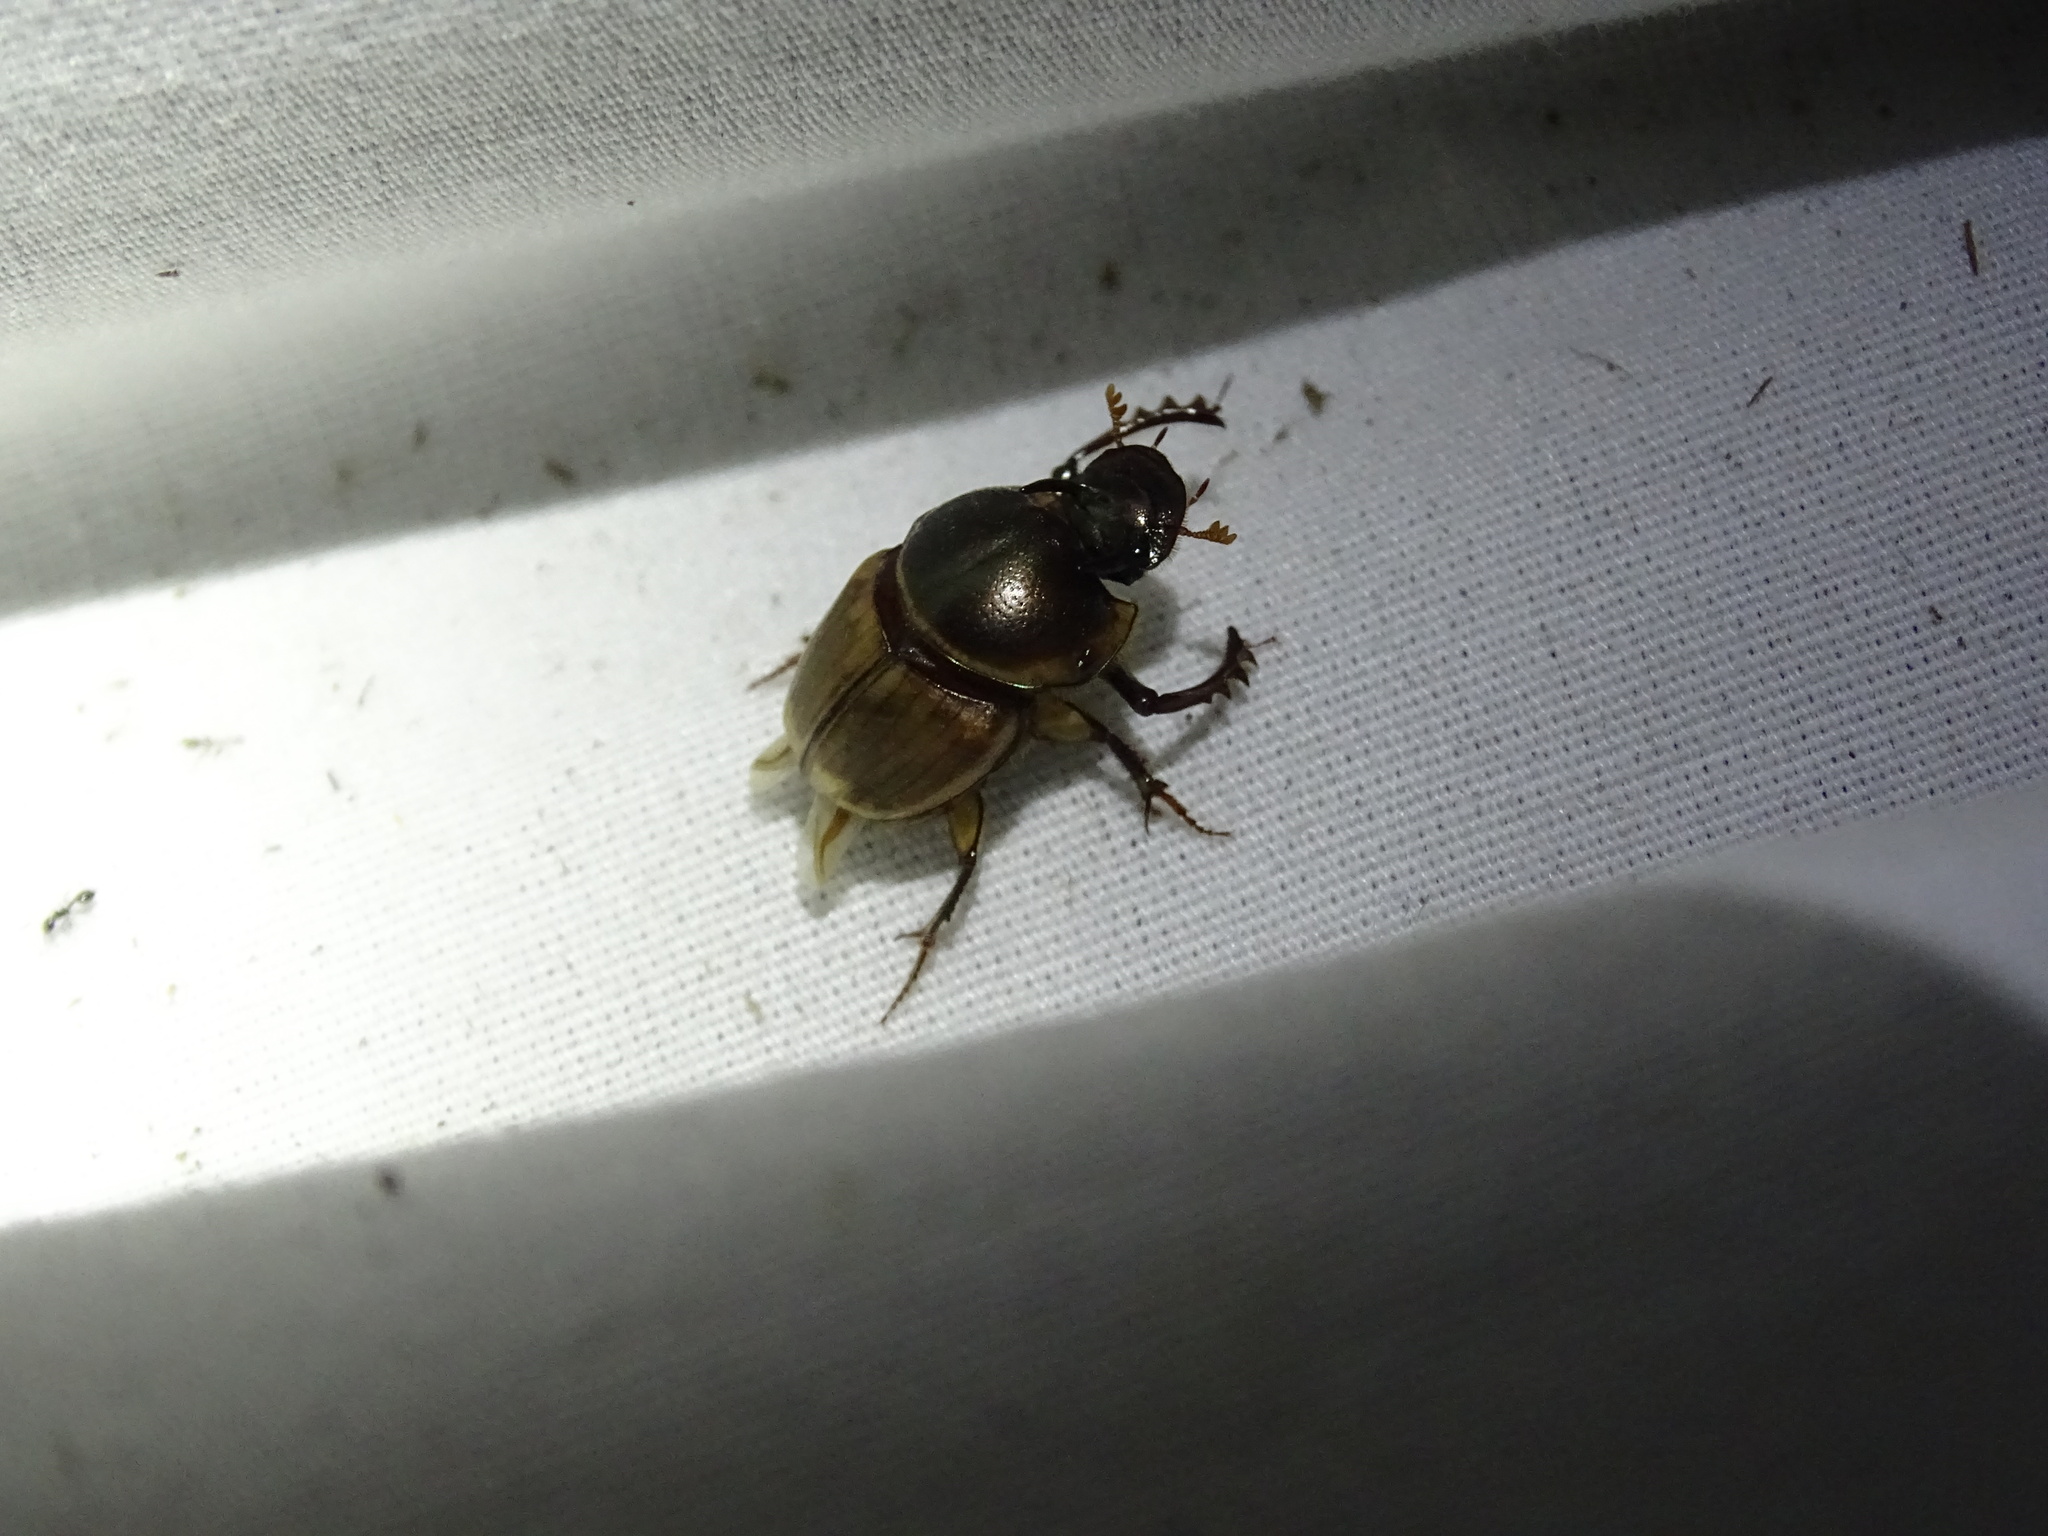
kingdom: Animalia
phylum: Arthropoda
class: Insecta
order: Coleoptera
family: Scarabaeidae
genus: Digitonthophagus
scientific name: Digitonthophagus gazella
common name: Brown dung beetle
